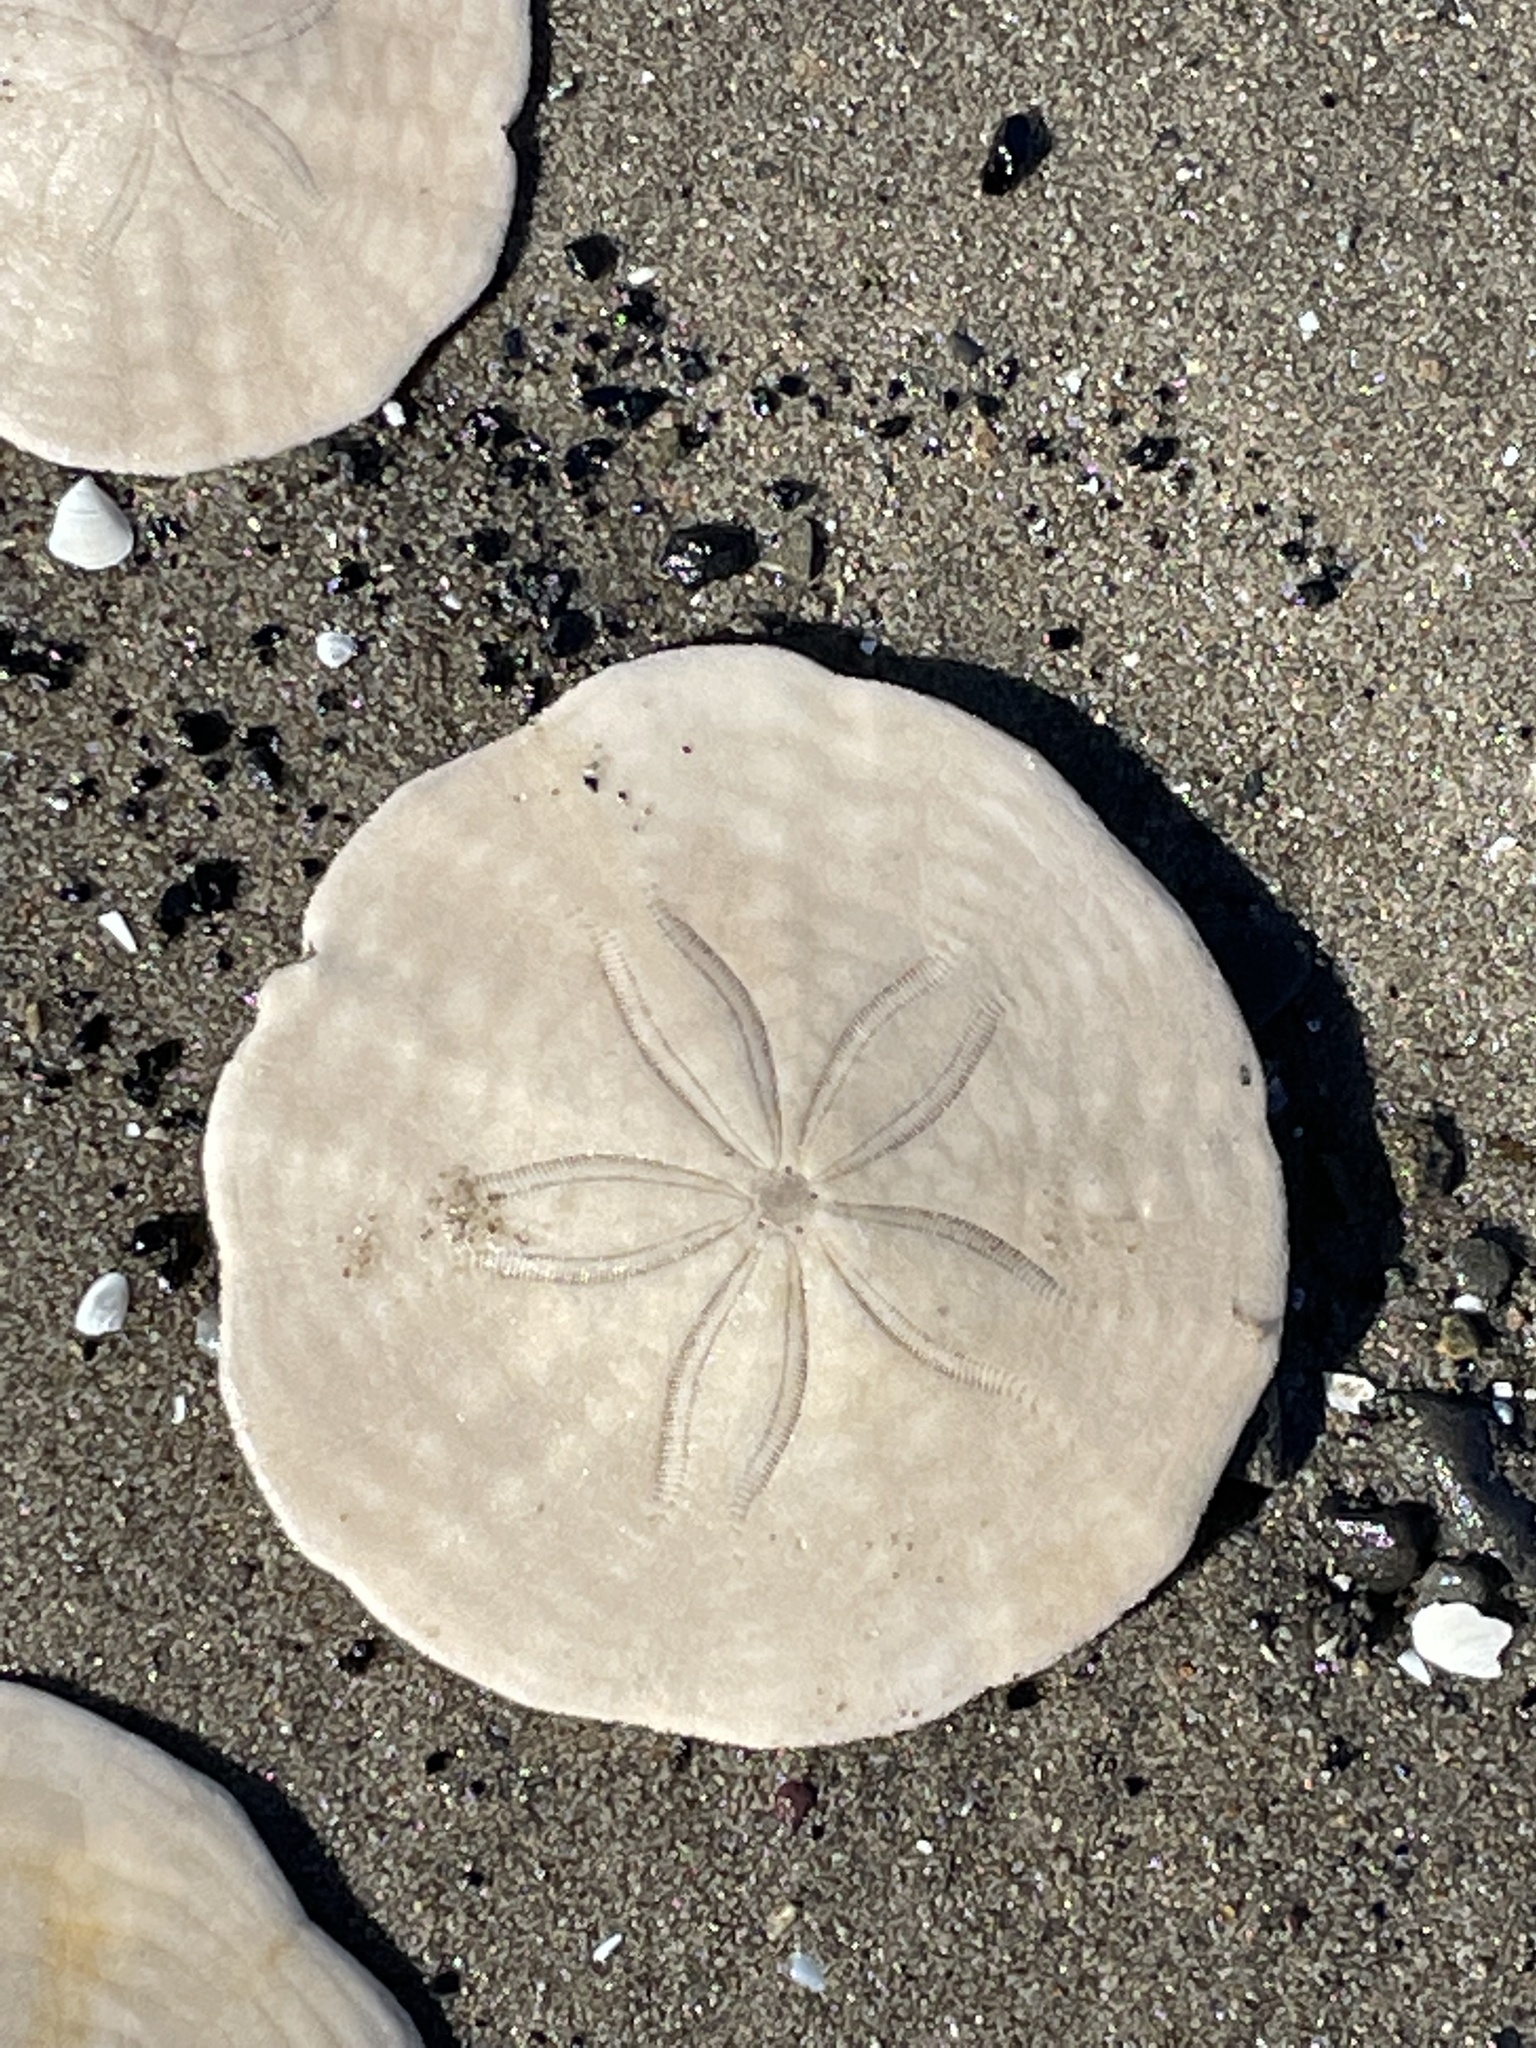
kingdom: Animalia
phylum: Echinodermata
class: Echinoidea
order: Echinolampadacea
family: Echinarachniidae
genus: Echinarachnius
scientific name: Echinarachnius parma
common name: Common sand dollar
